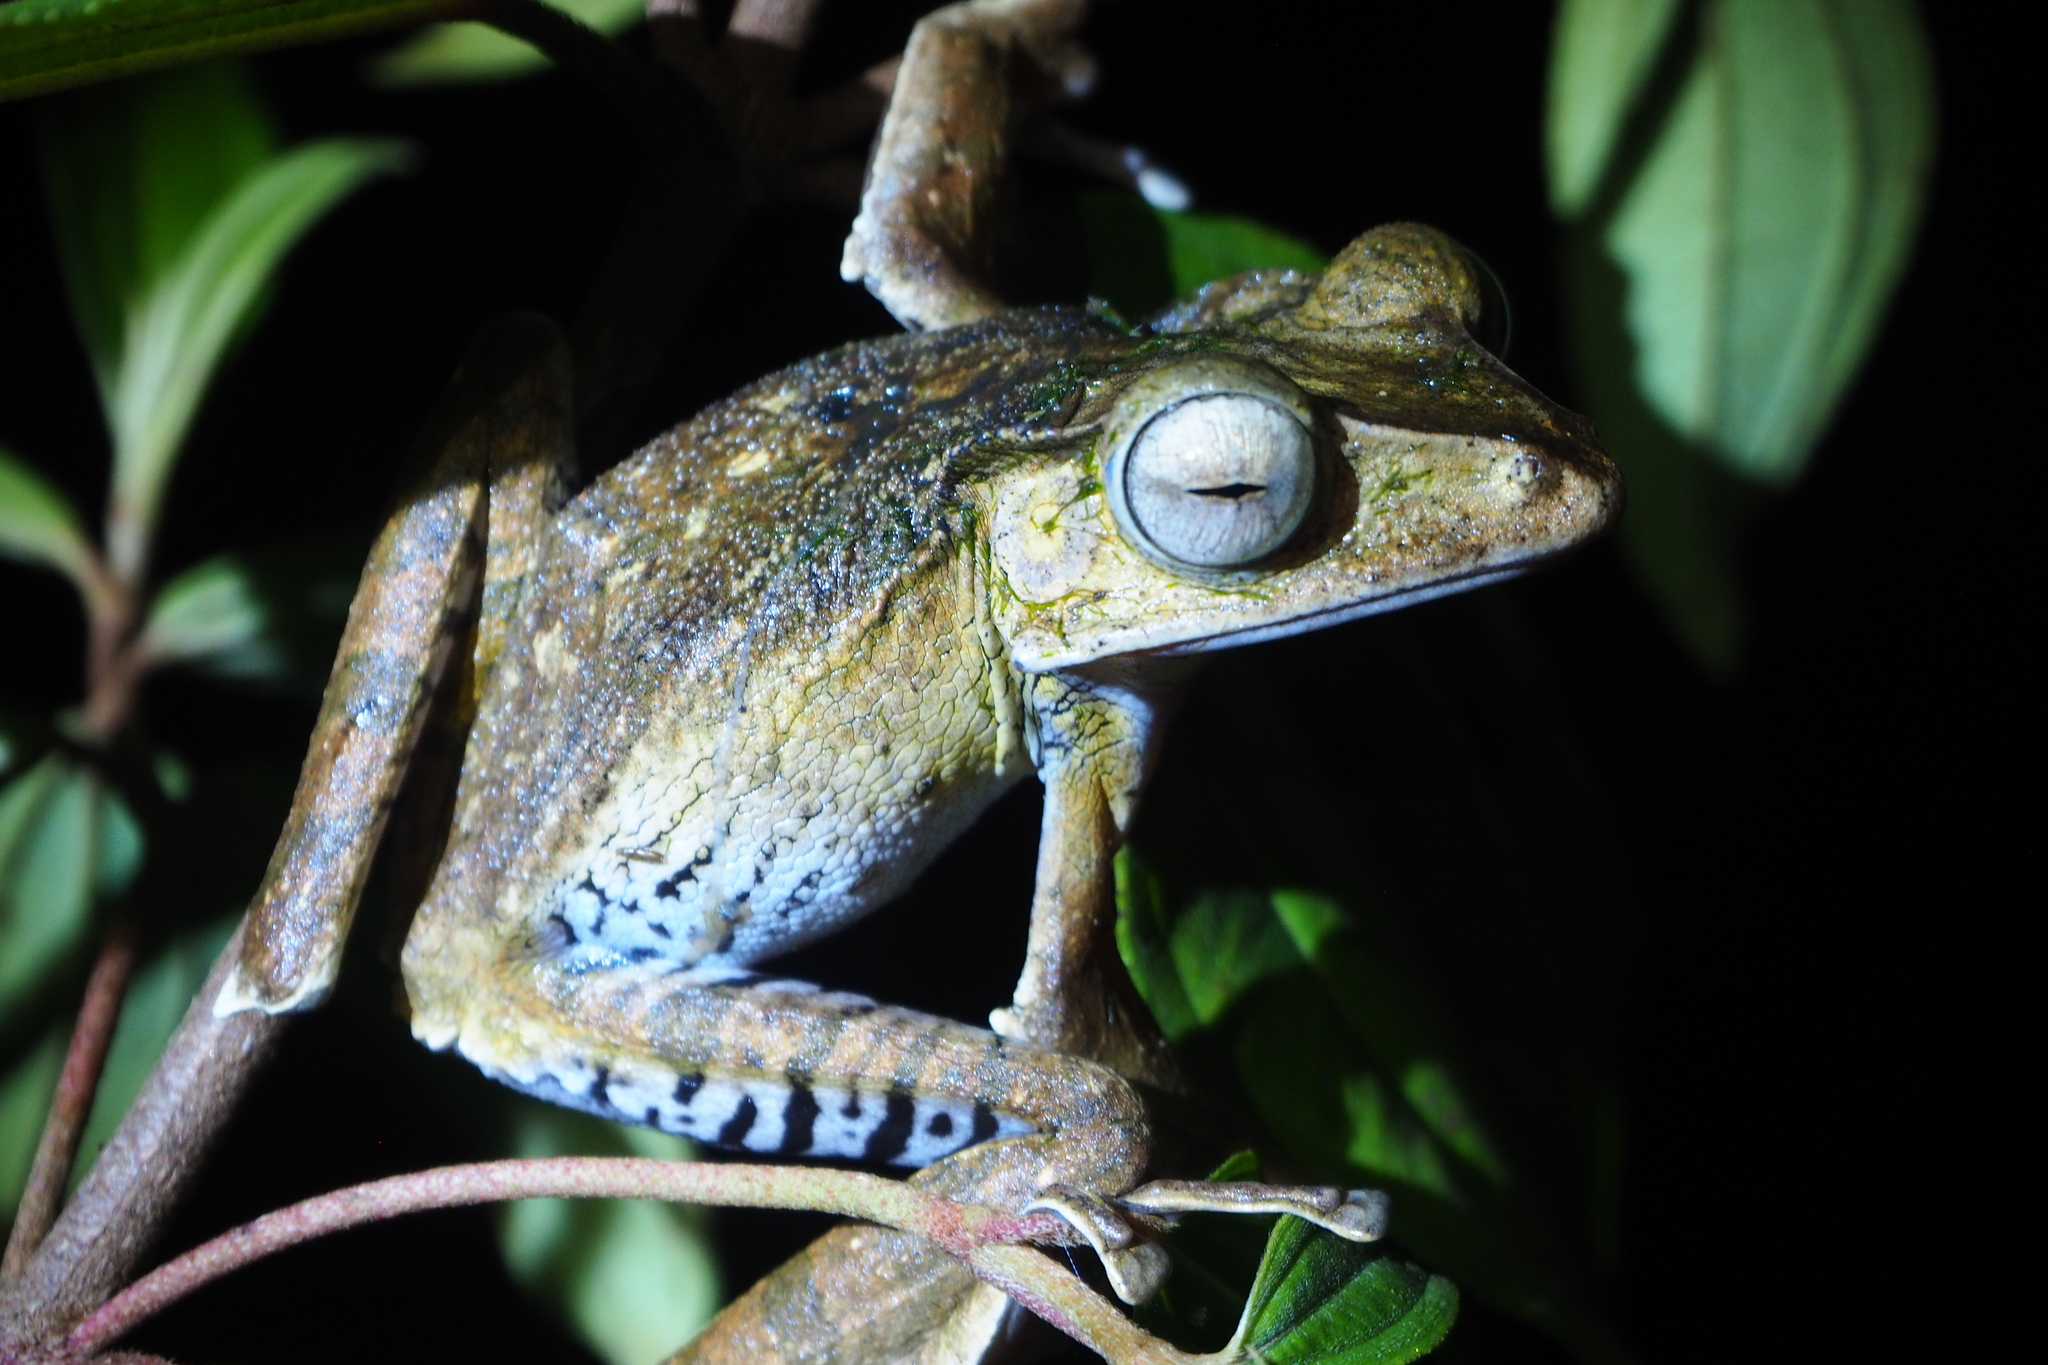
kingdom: Animalia
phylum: Chordata
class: Amphibia
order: Anura
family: Rhacophoridae
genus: Polypedates
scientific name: Polypedates otilophus
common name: File-eared tree frog
